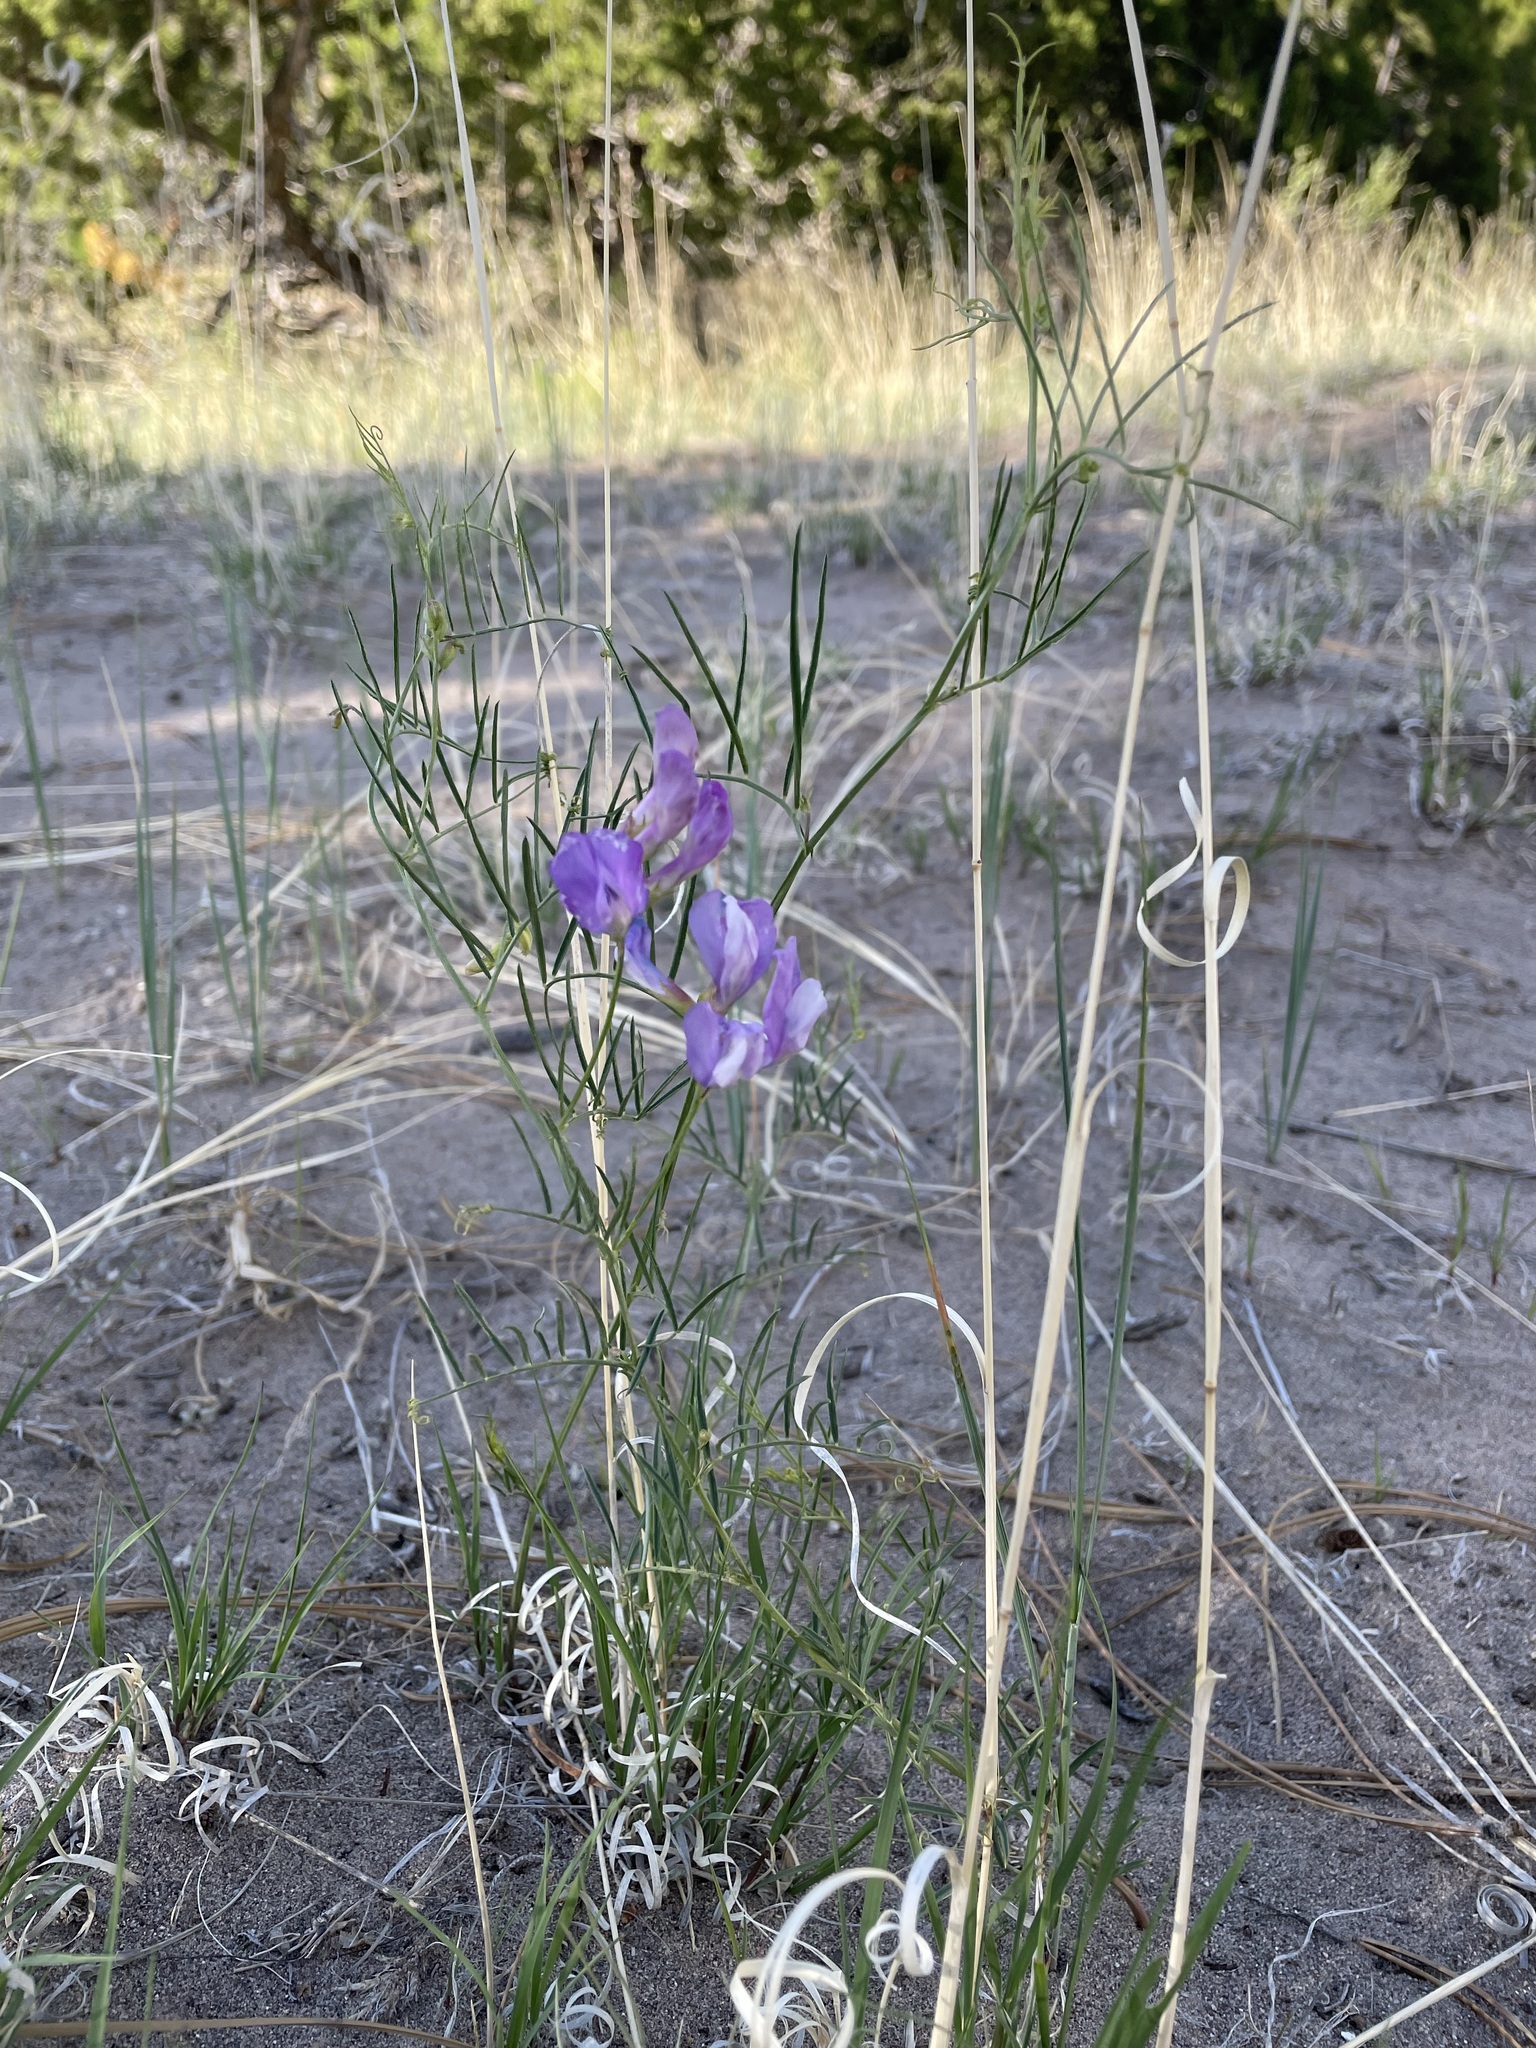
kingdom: Plantae
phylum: Tracheophyta
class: Magnoliopsida
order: Fabales
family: Fabaceae
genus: Vicia
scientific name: Vicia americana
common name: American vetch
